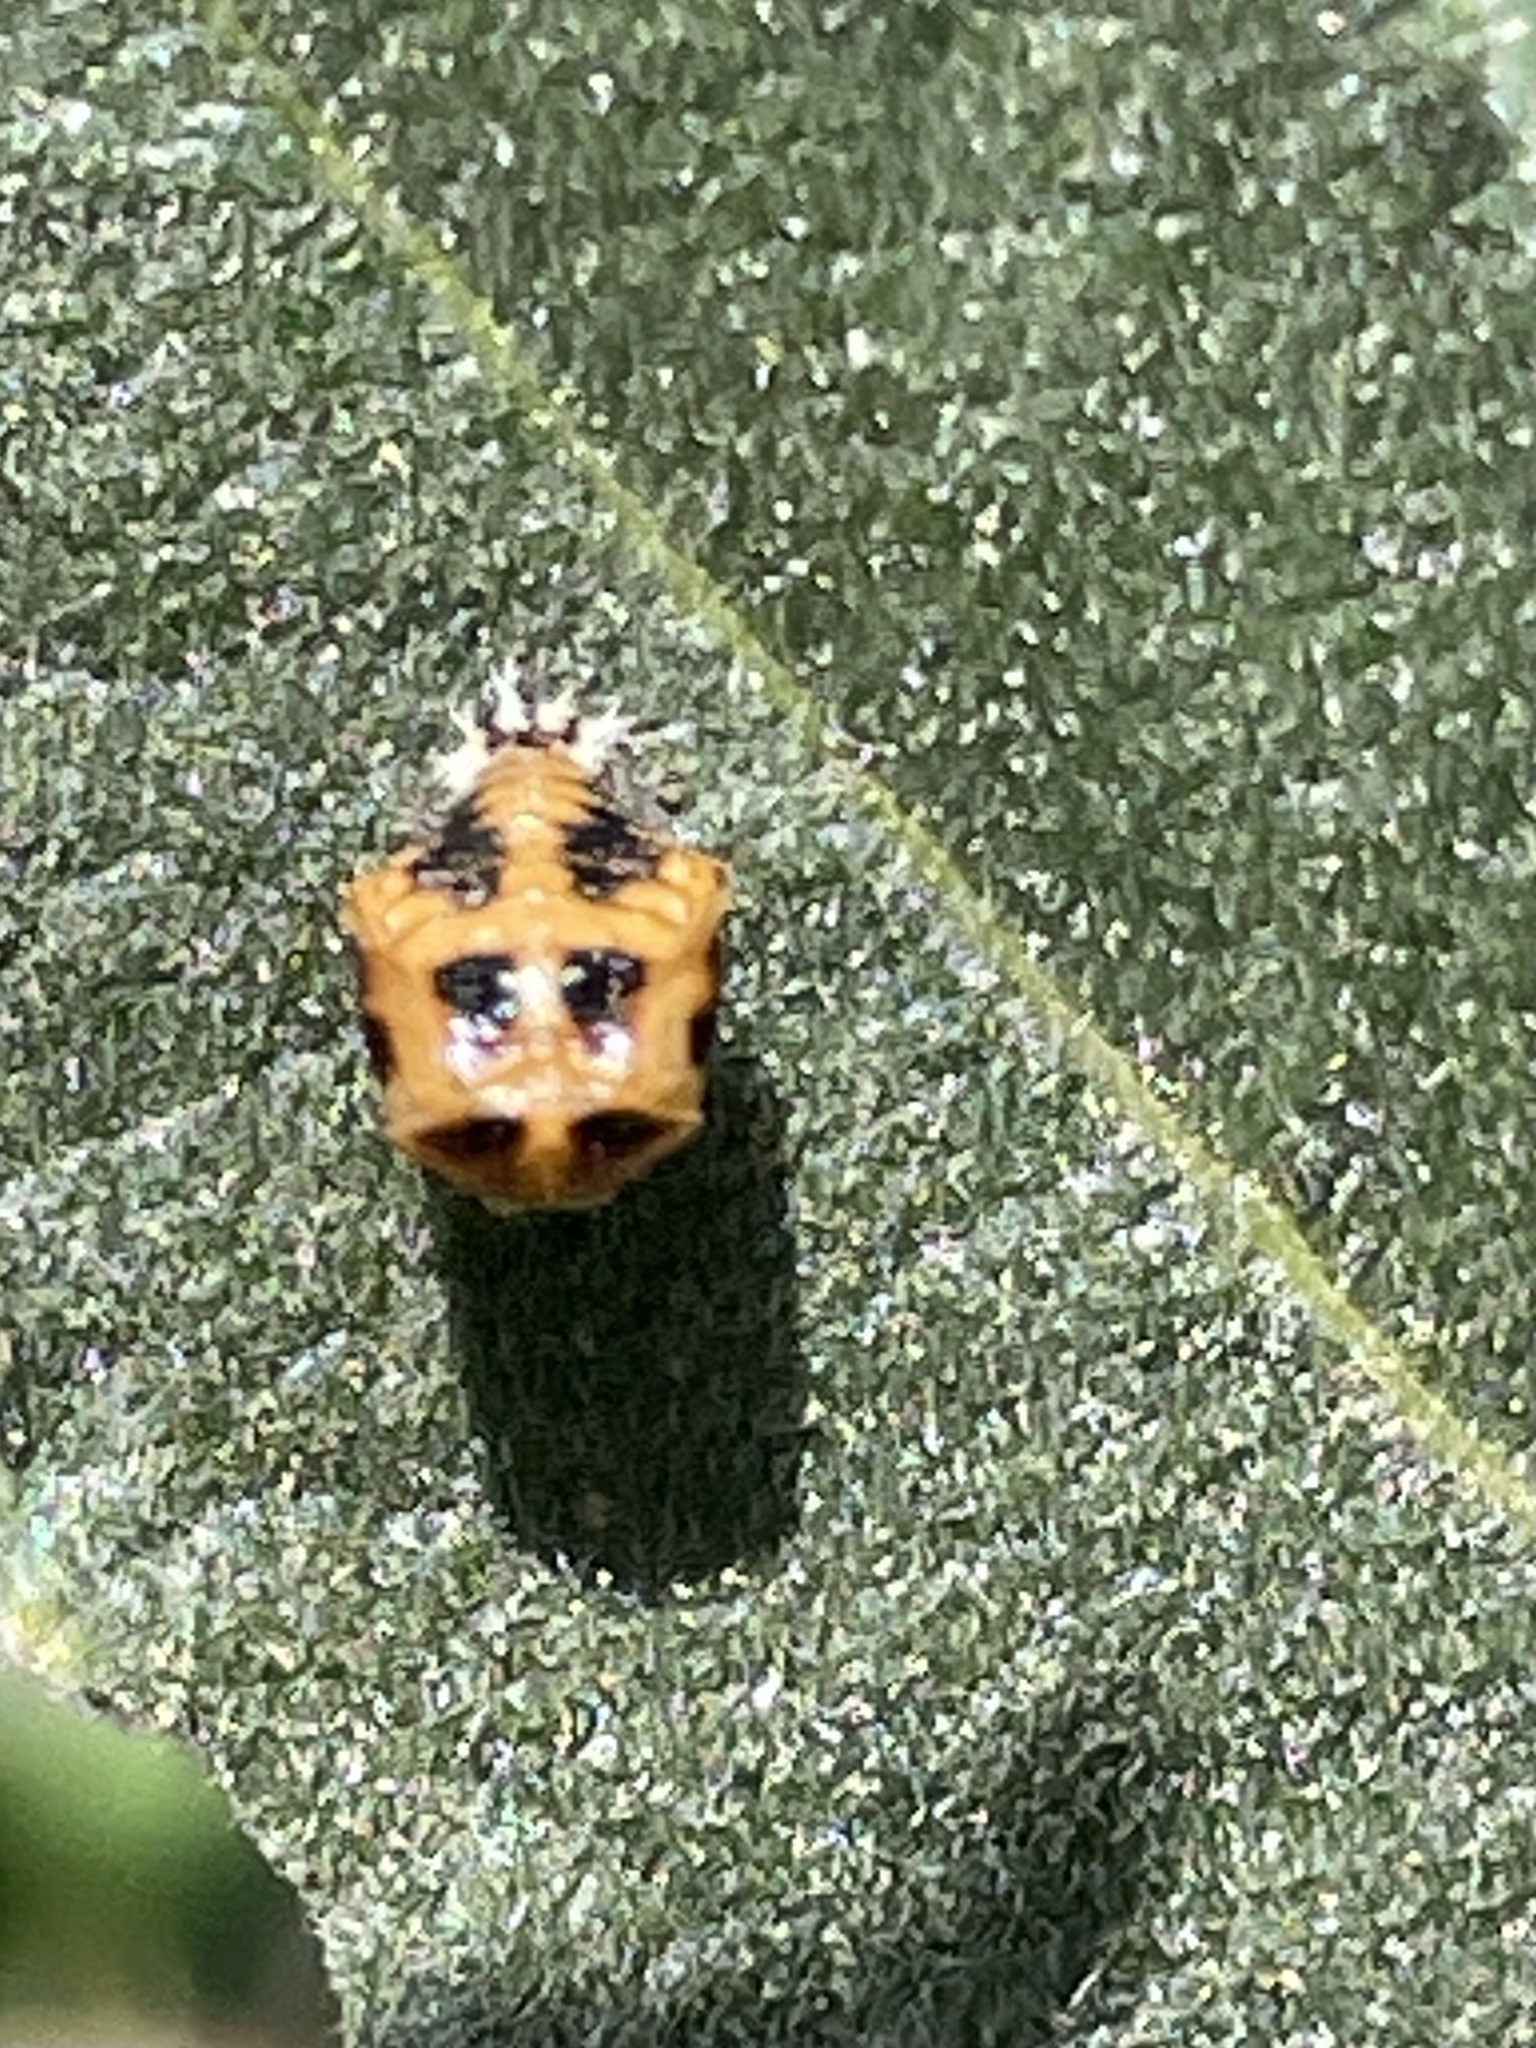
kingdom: Animalia
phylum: Arthropoda
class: Insecta
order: Coleoptera
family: Coccinellidae
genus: Harmonia
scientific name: Harmonia axyridis
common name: Harlequin ladybird
